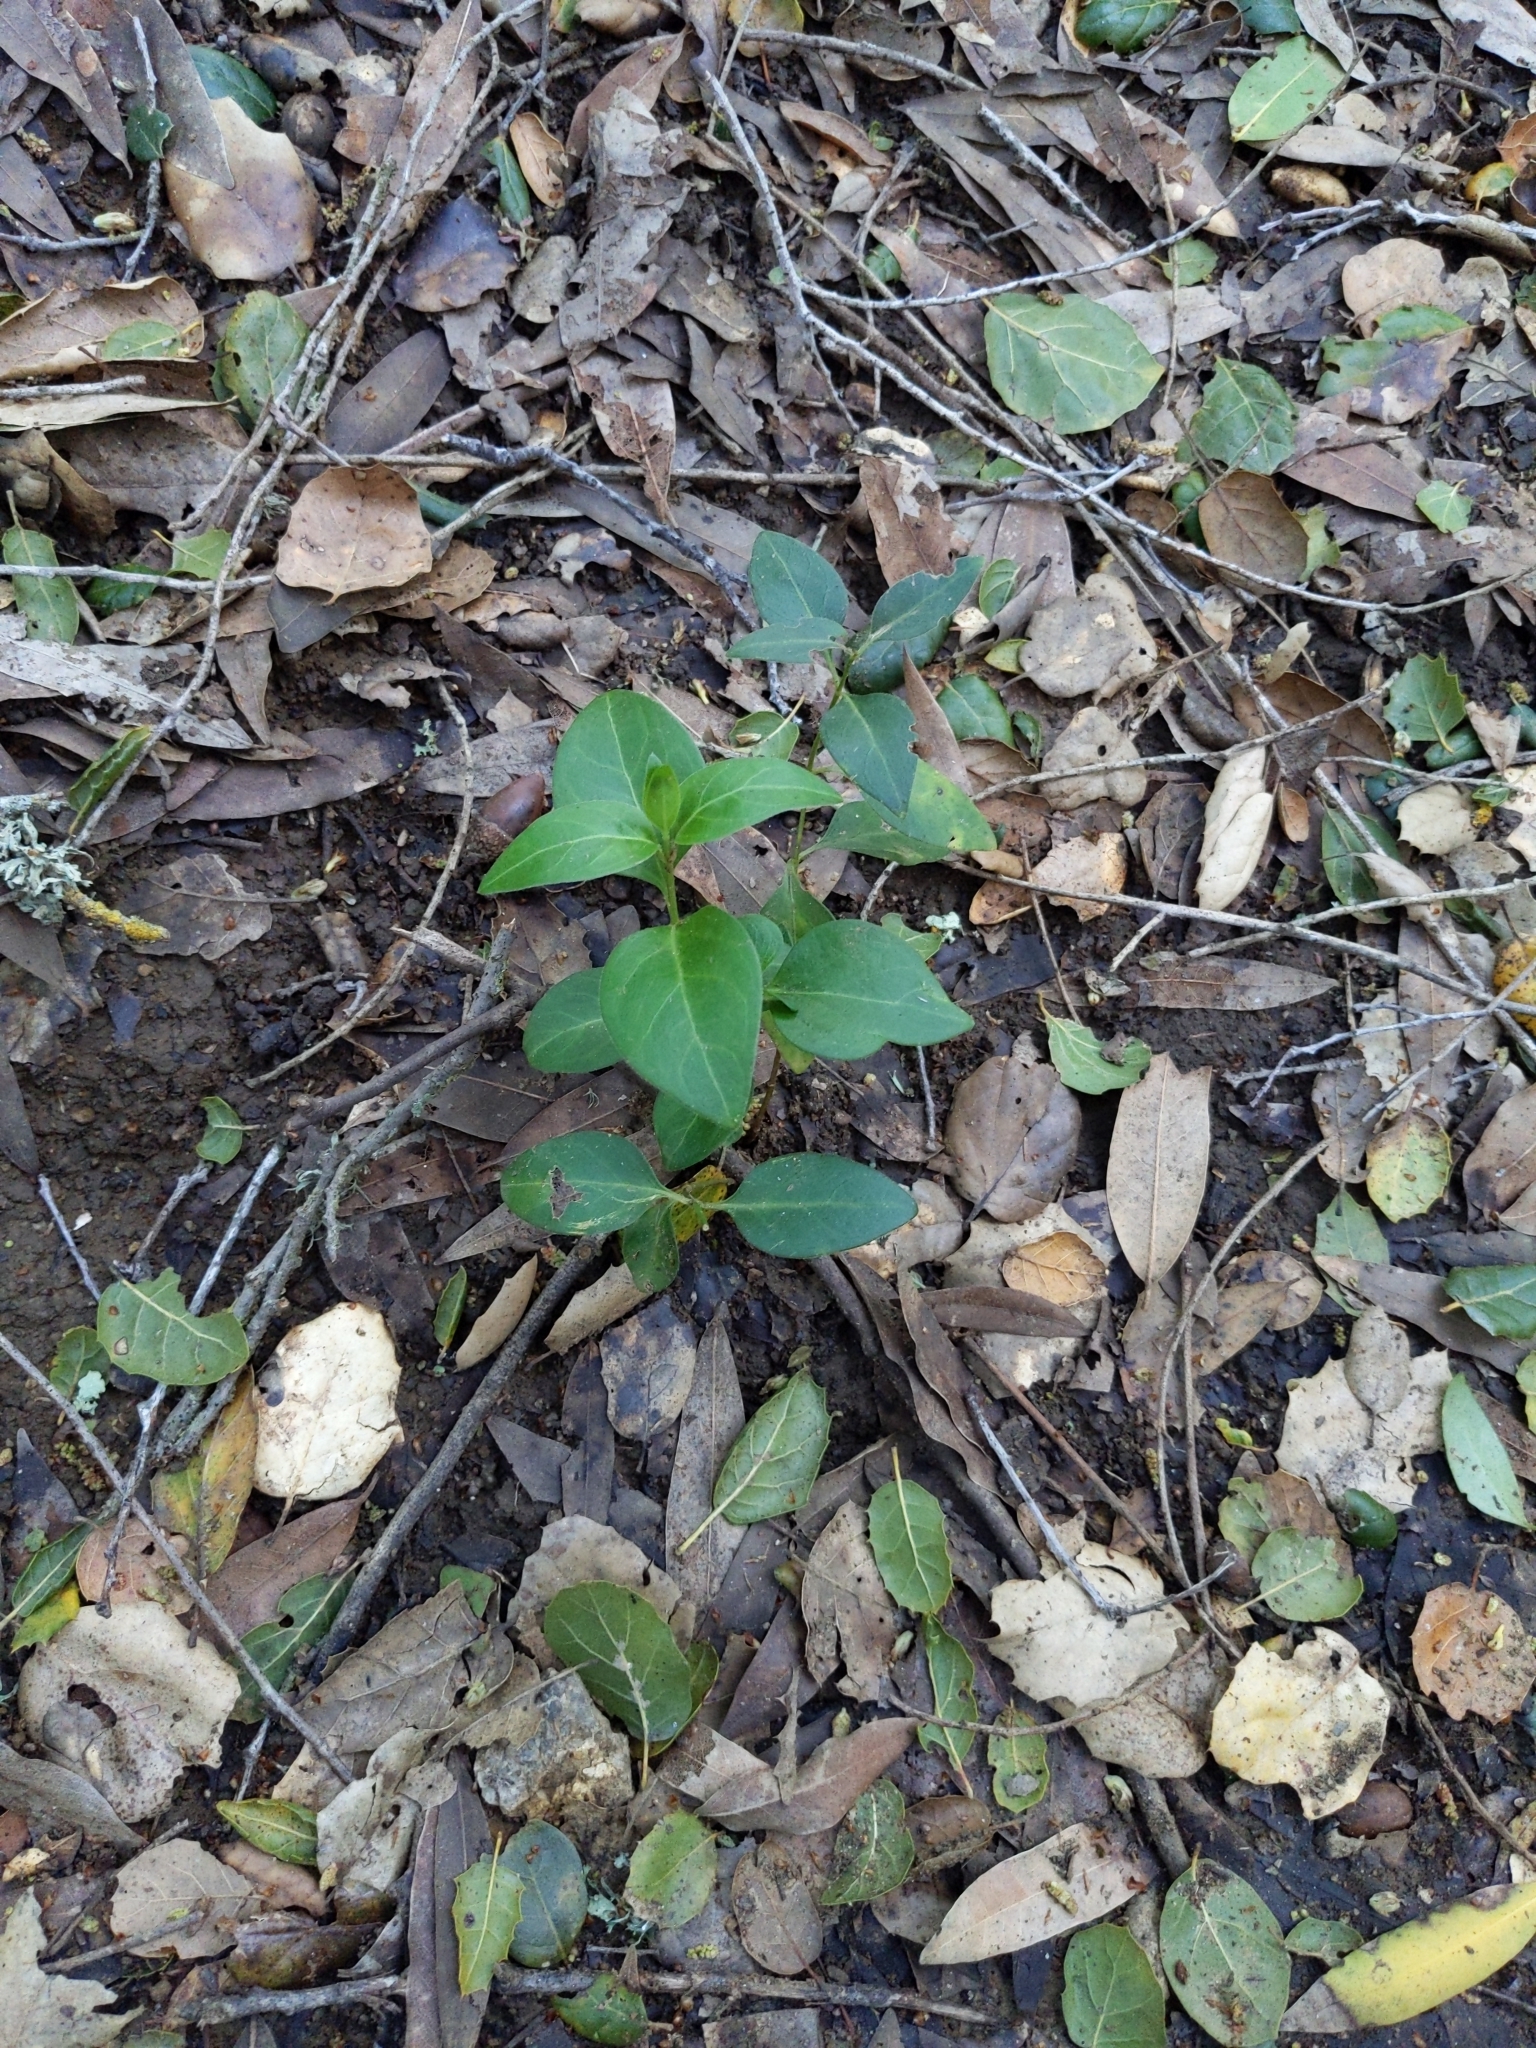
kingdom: Plantae
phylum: Tracheophyta
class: Magnoliopsida
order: Gentianales
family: Apocynaceae
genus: Vinca
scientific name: Vinca major
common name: Greater periwinkle
